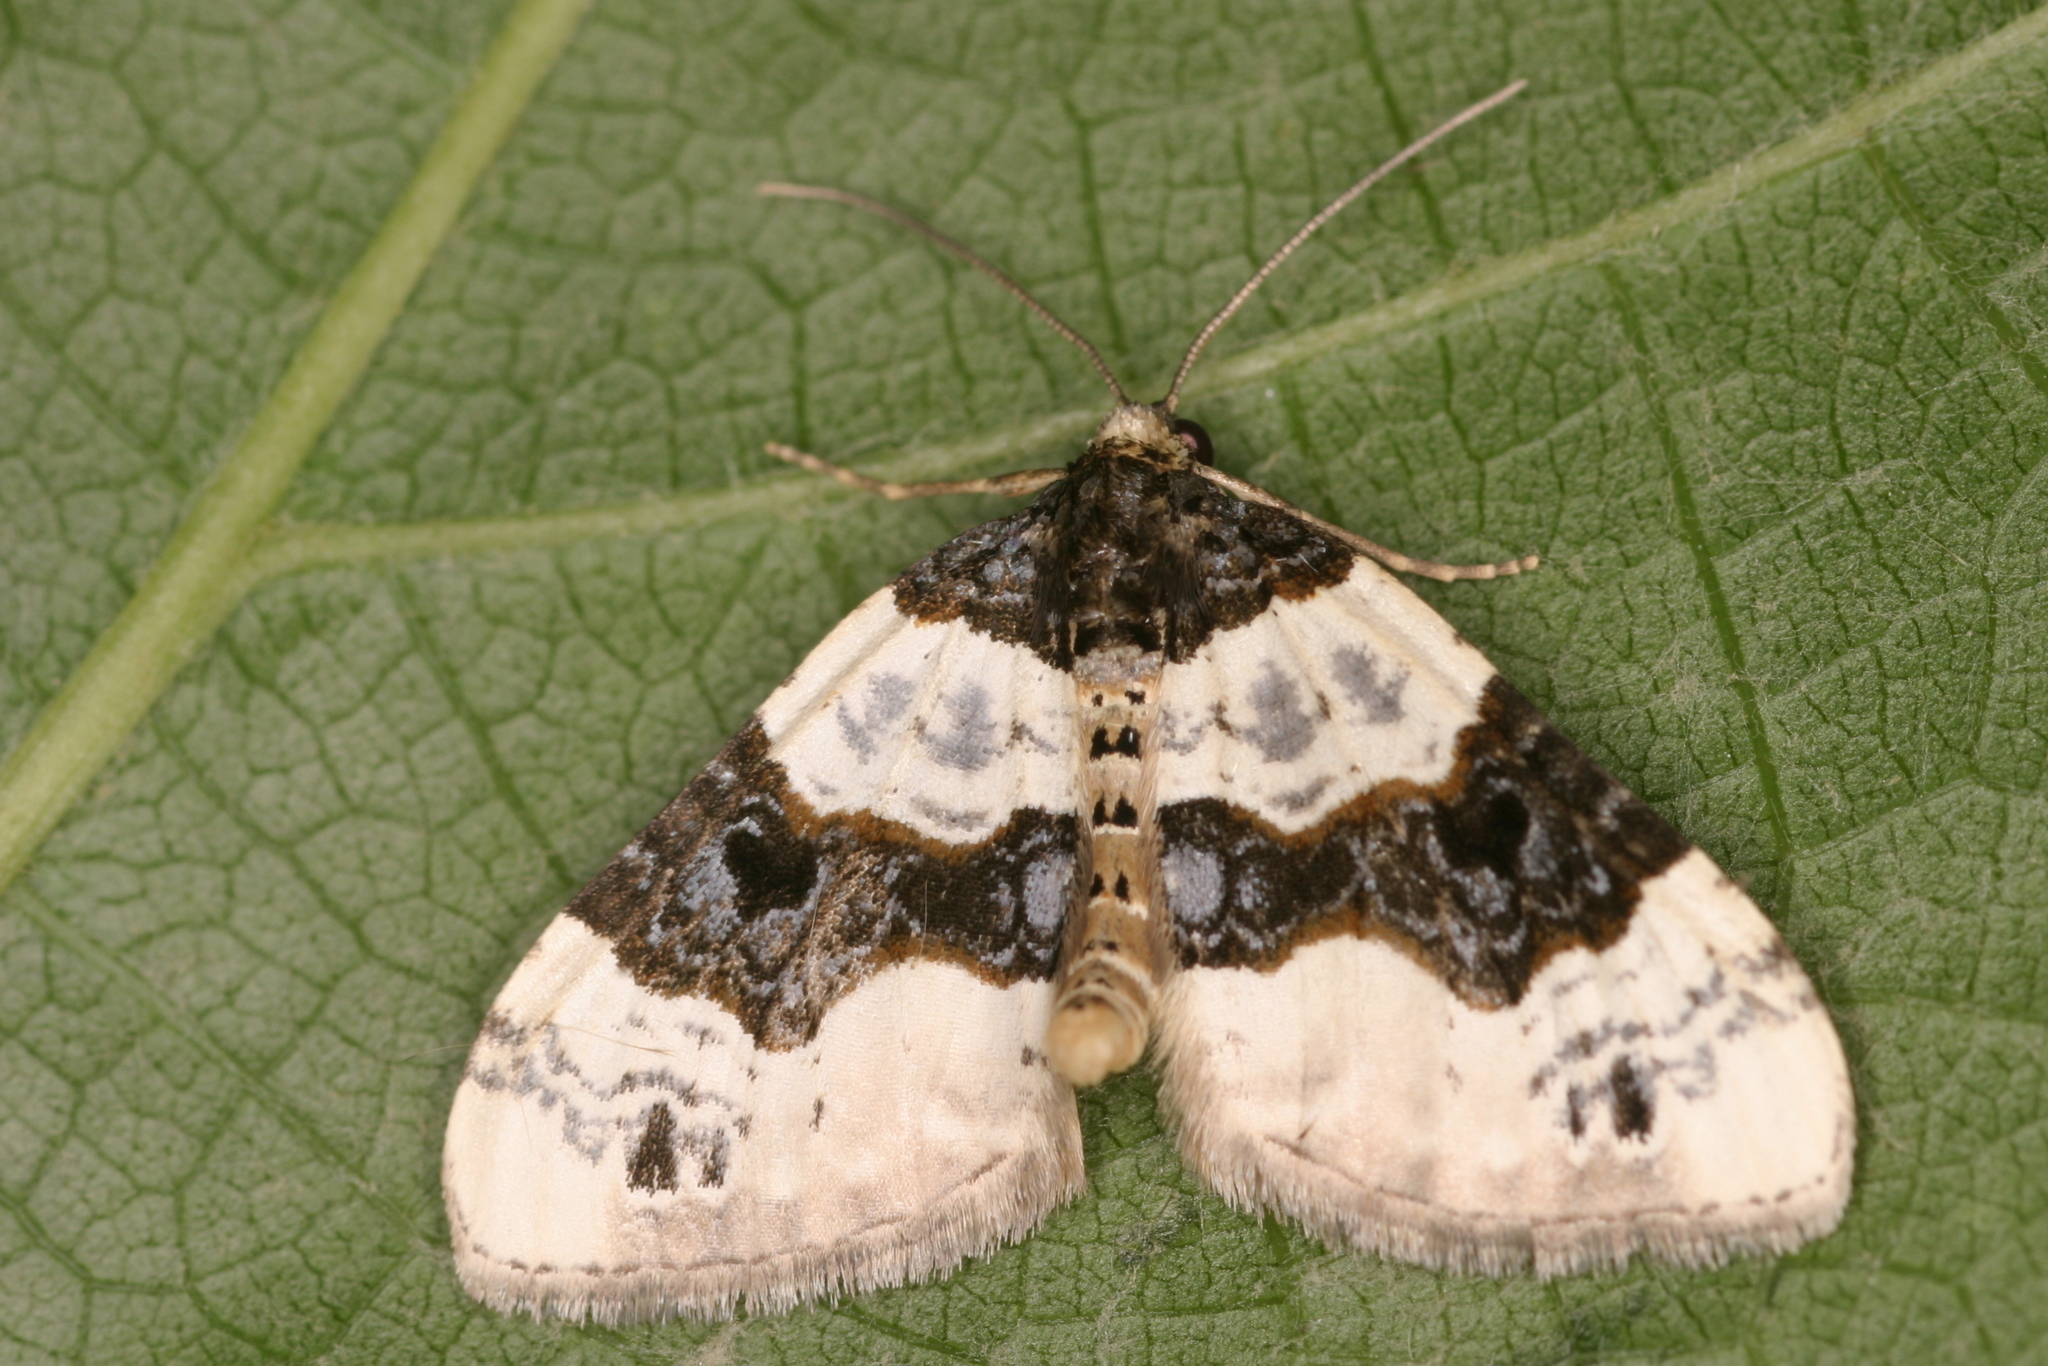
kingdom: Animalia
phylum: Arthropoda
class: Insecta
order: Lepidoptera
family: Geometridae
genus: Cosmorhoe
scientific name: Cosmorhoe ocellata
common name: Purple bar
